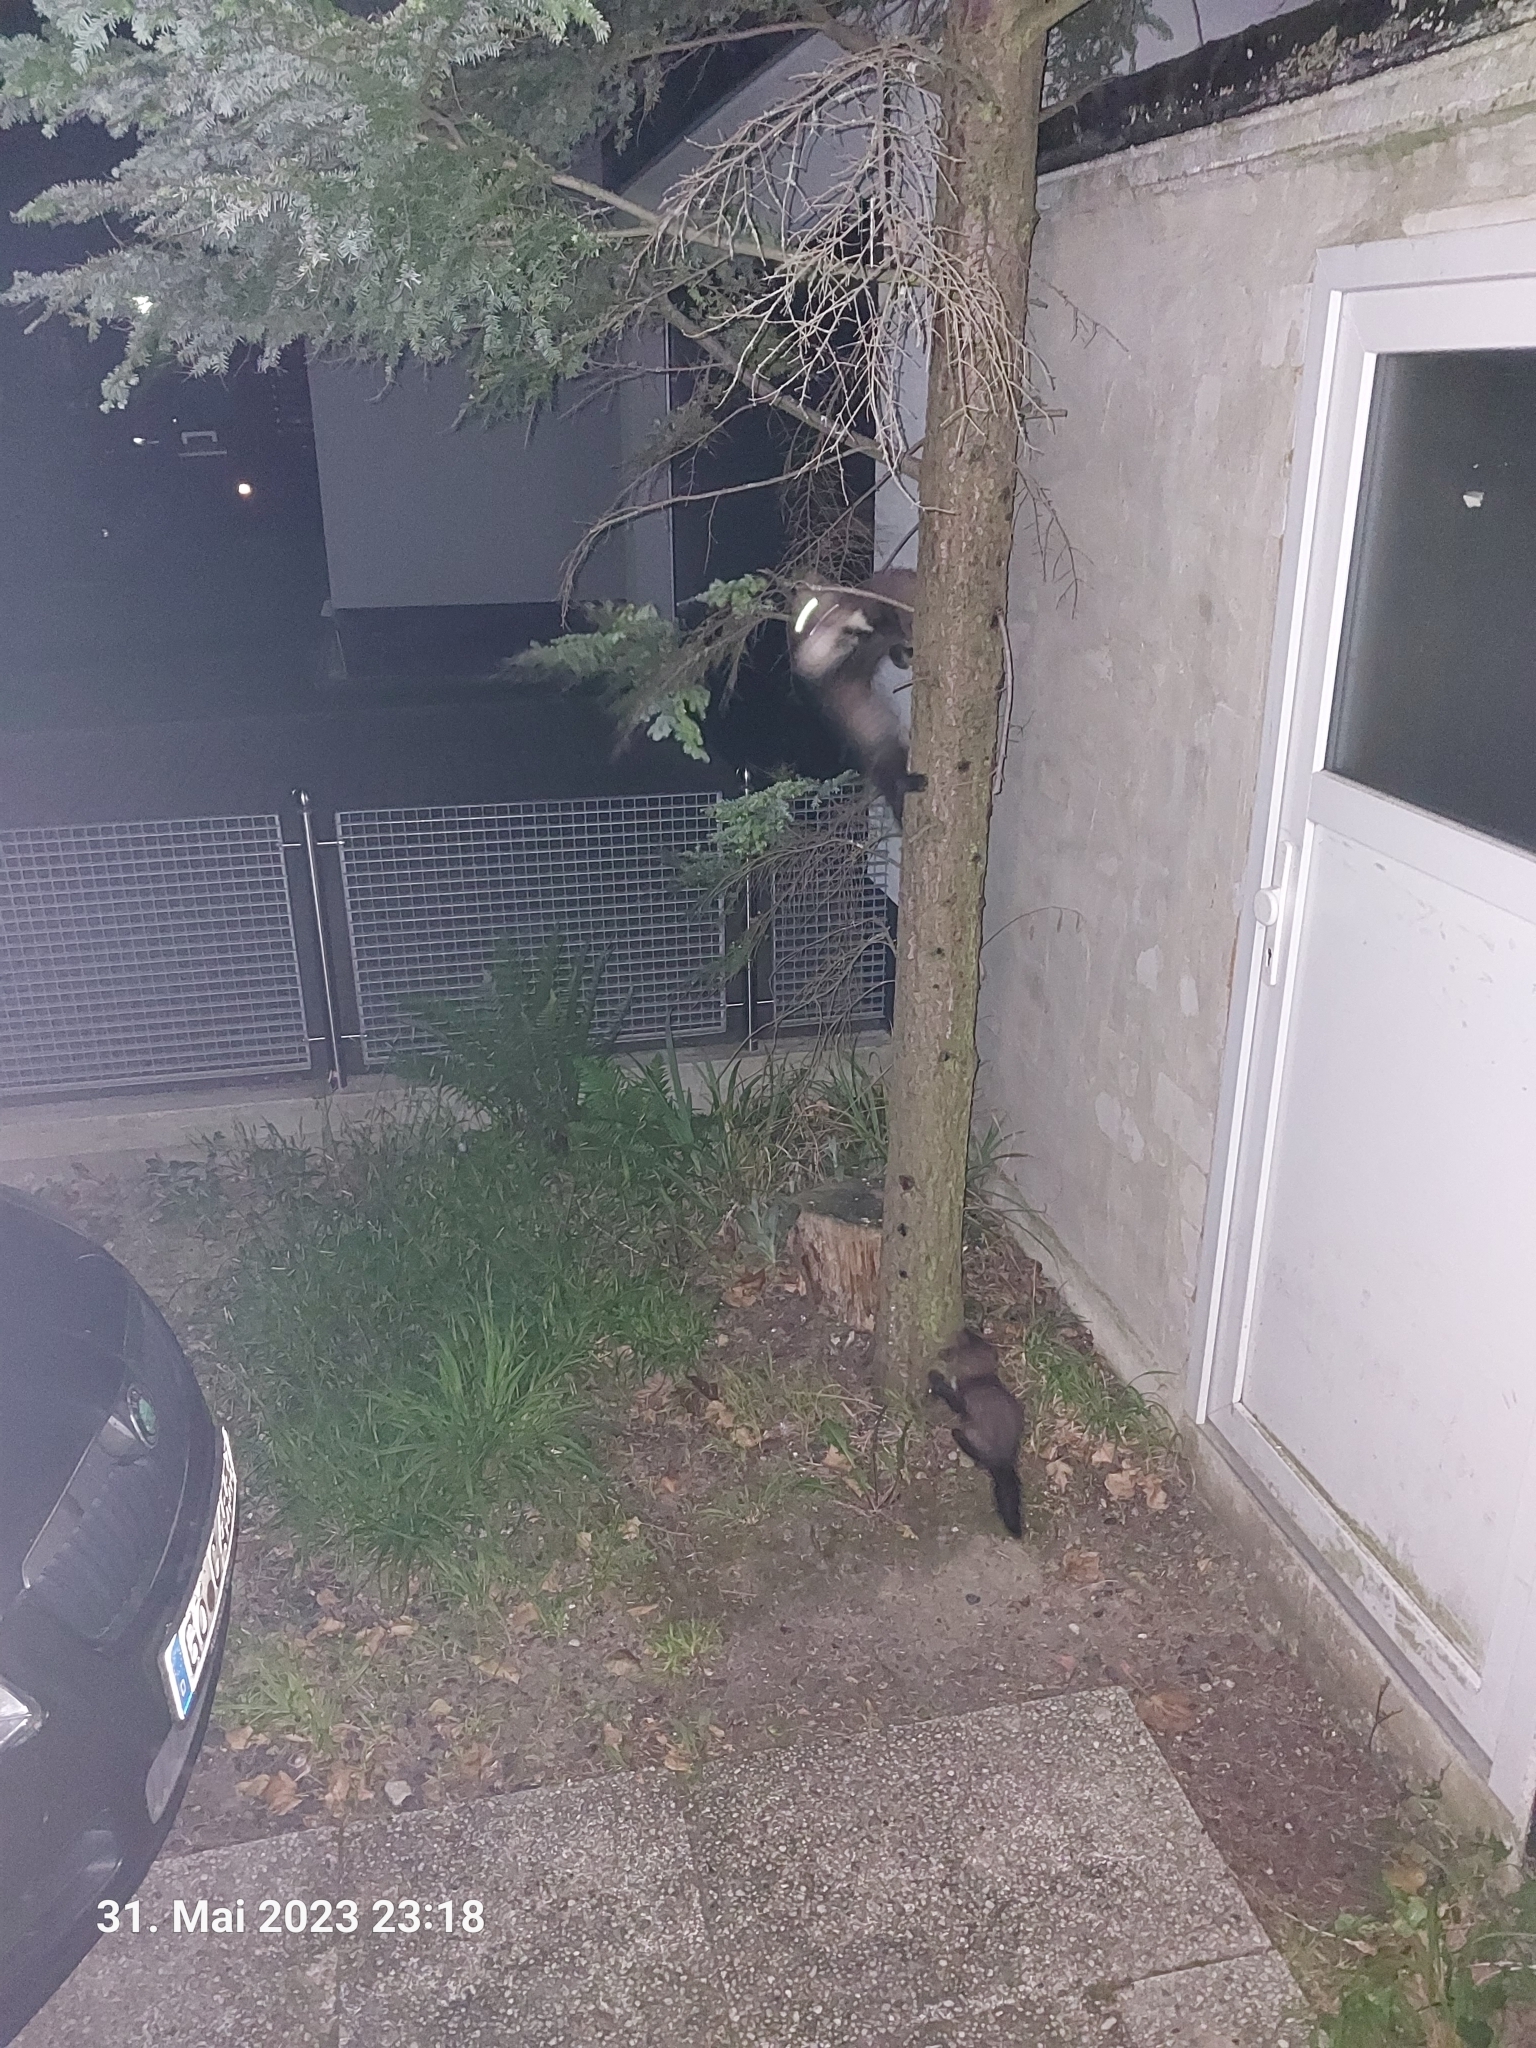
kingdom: Animalia
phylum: Chordata
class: Mammalia
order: Carnivora
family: Mustelidae
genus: Martes
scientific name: Martes foina
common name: Beech marten
